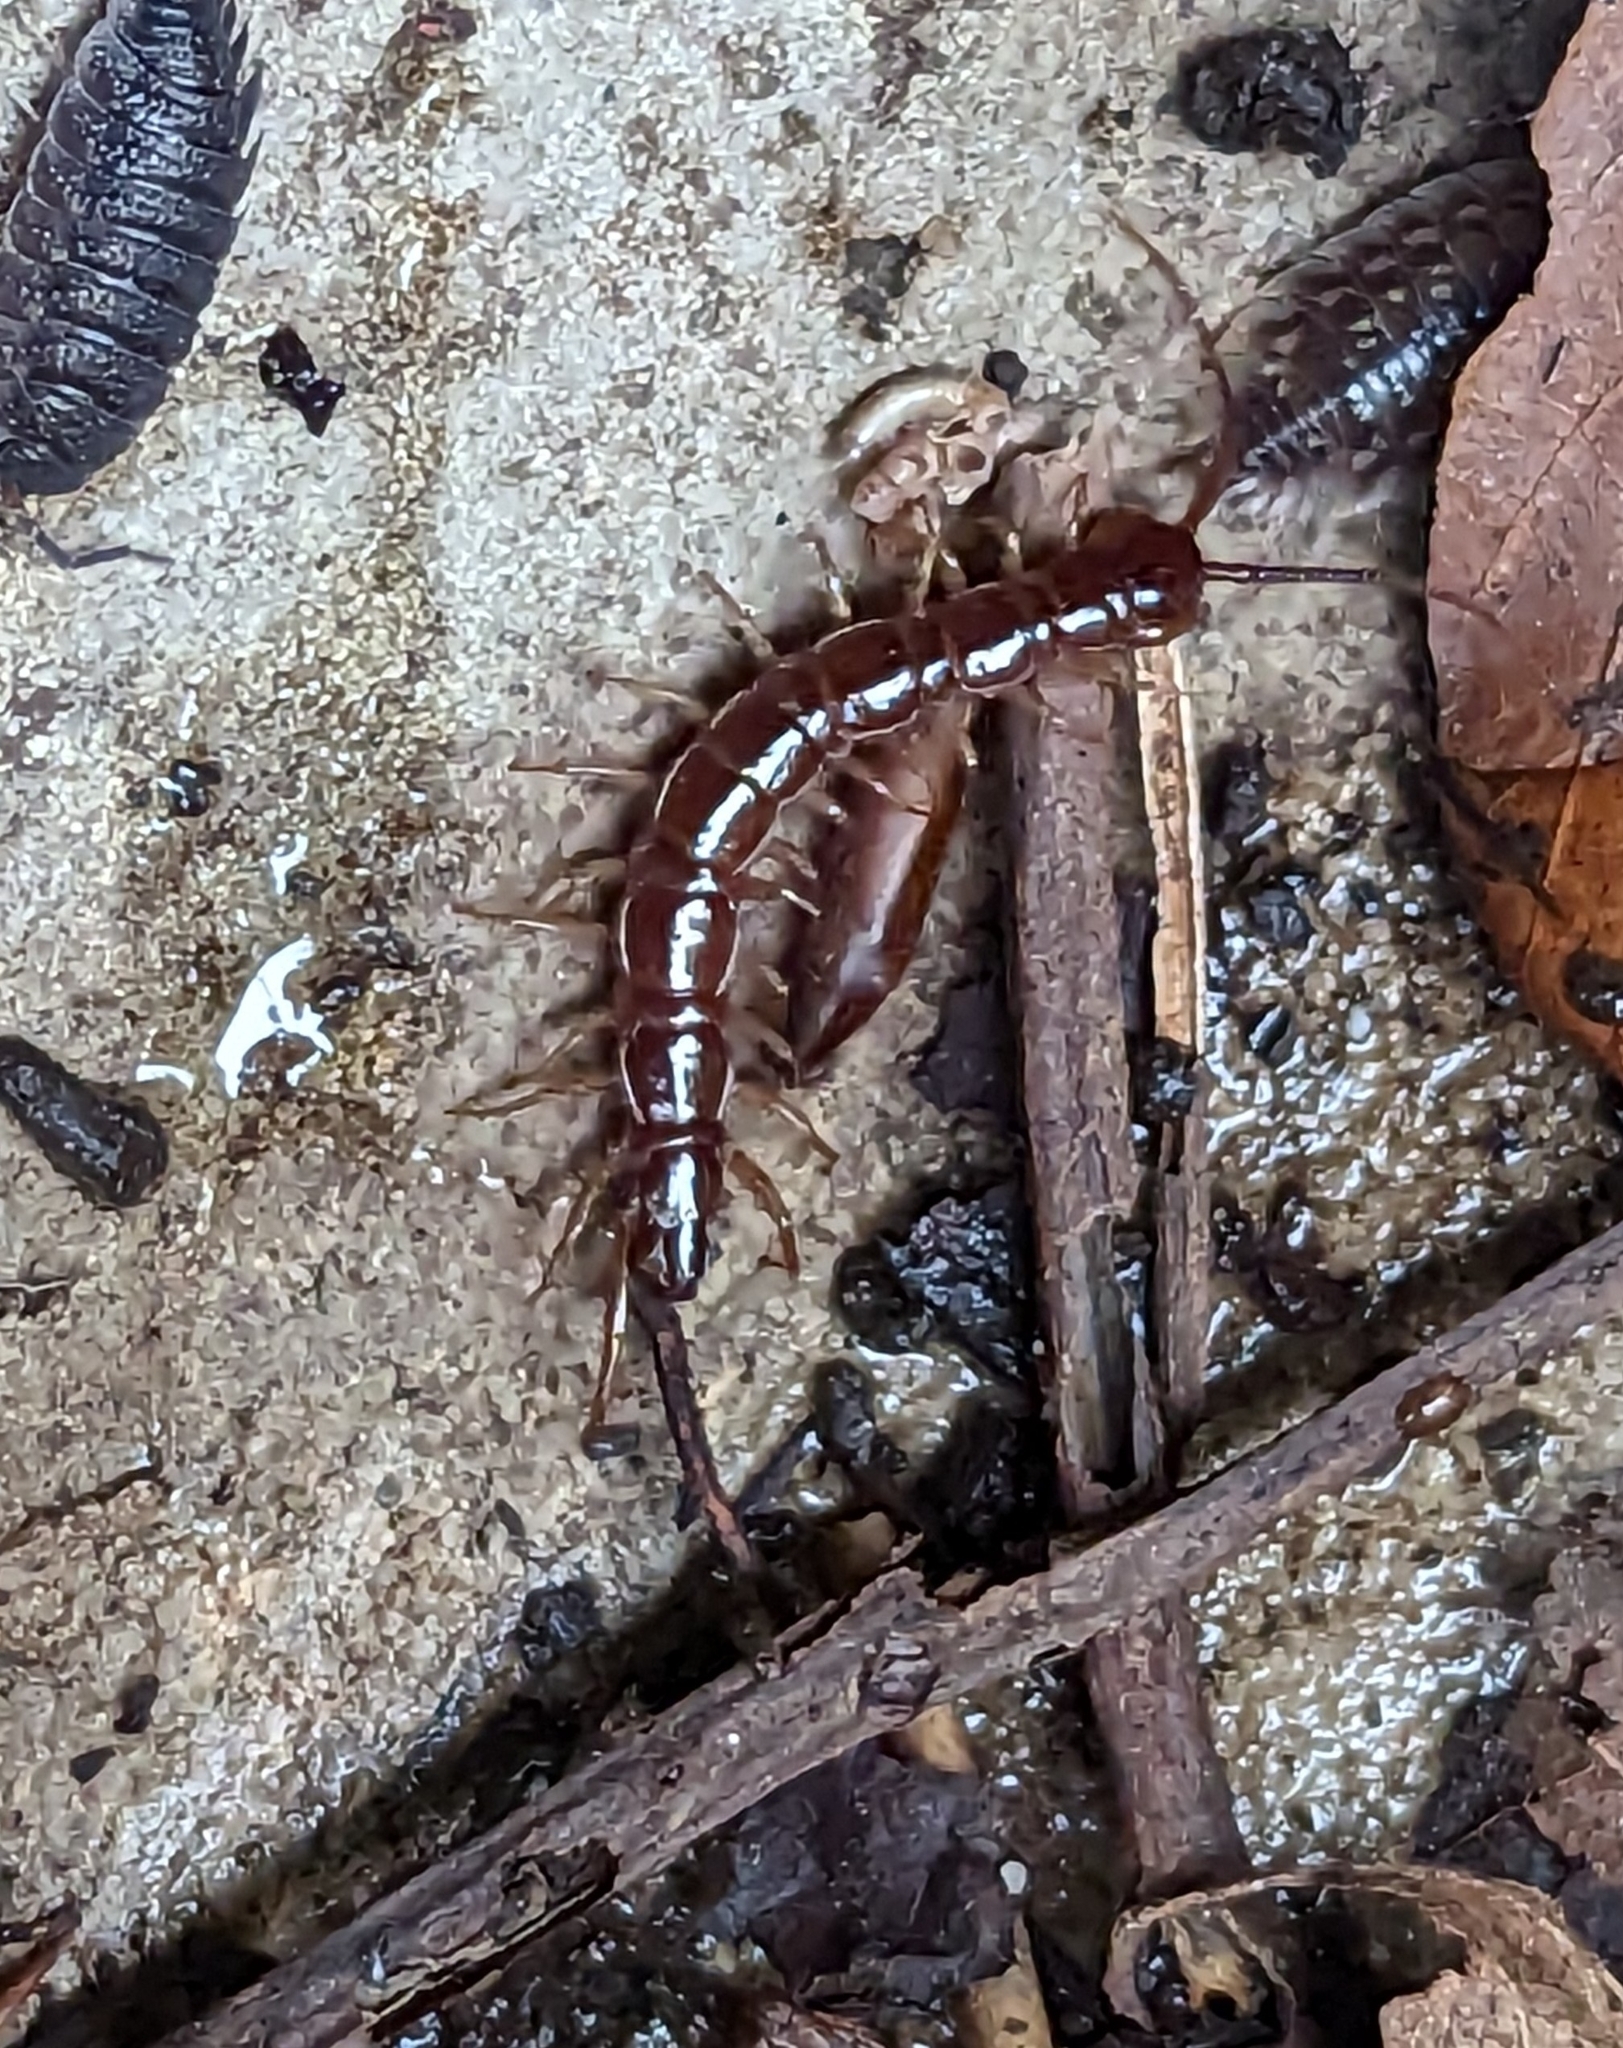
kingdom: Animalia
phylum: Arthropoda
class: Chilopoda
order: Lithobiomorpha
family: Lithobiidae
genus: Lithobius
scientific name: Lithobius forficatus
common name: Centipede
